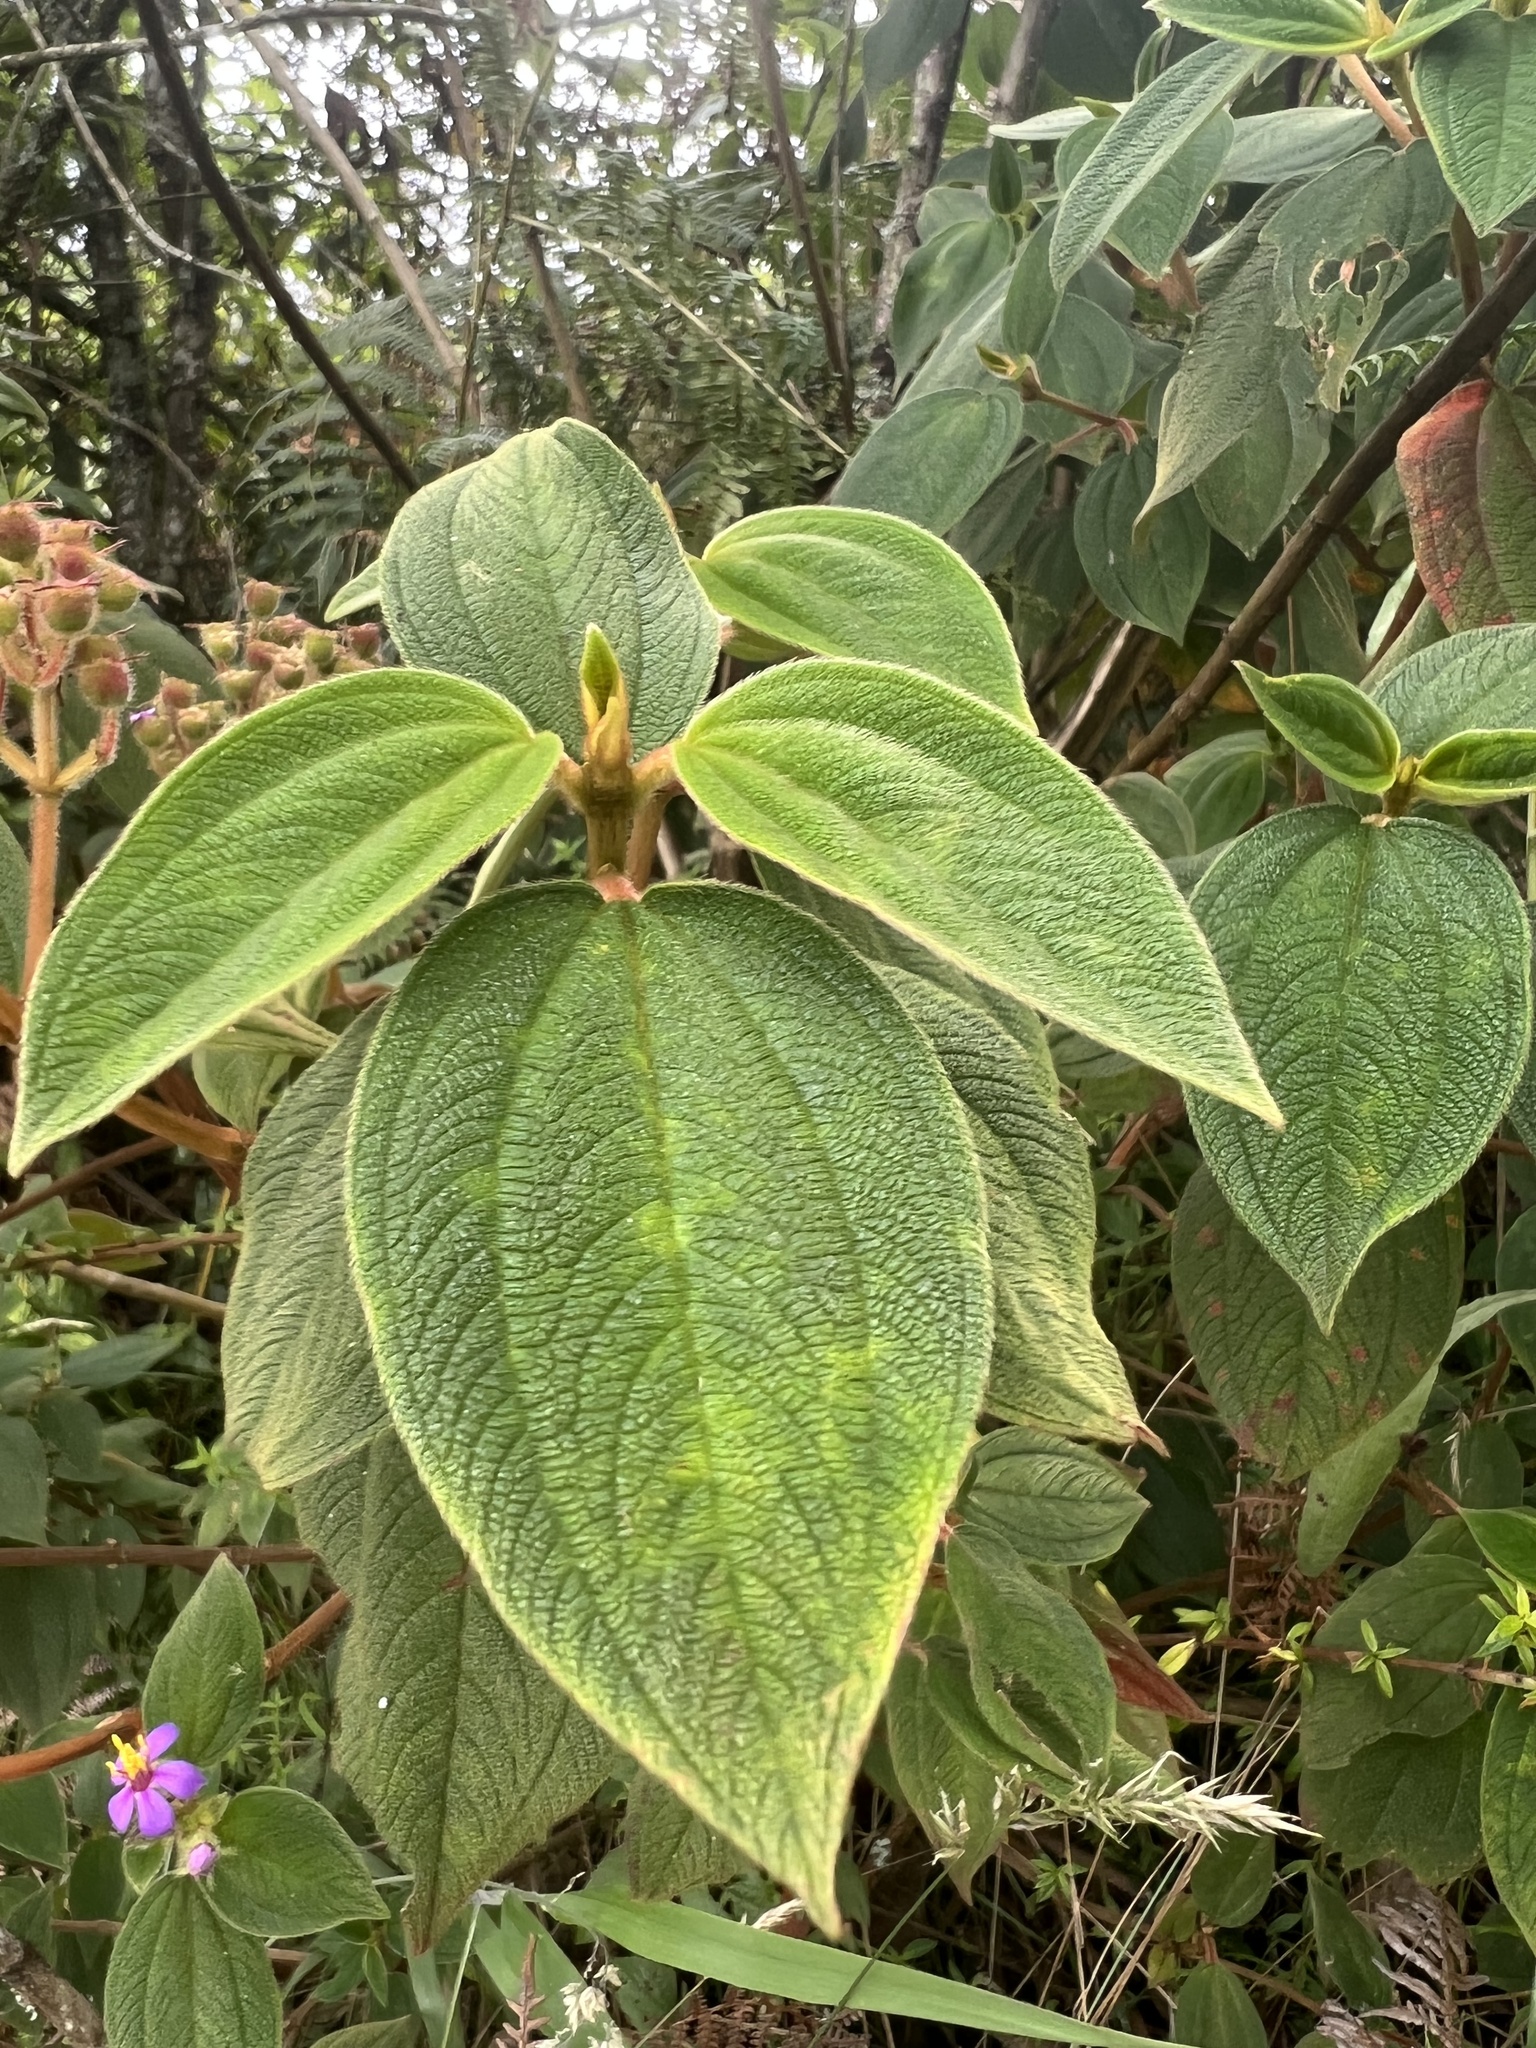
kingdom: Plantae
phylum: Tracheophyta
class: Magnoliopsida
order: Myrtales
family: Melastomataceae
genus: Chaetogastra
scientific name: Chaetogastra mollis
